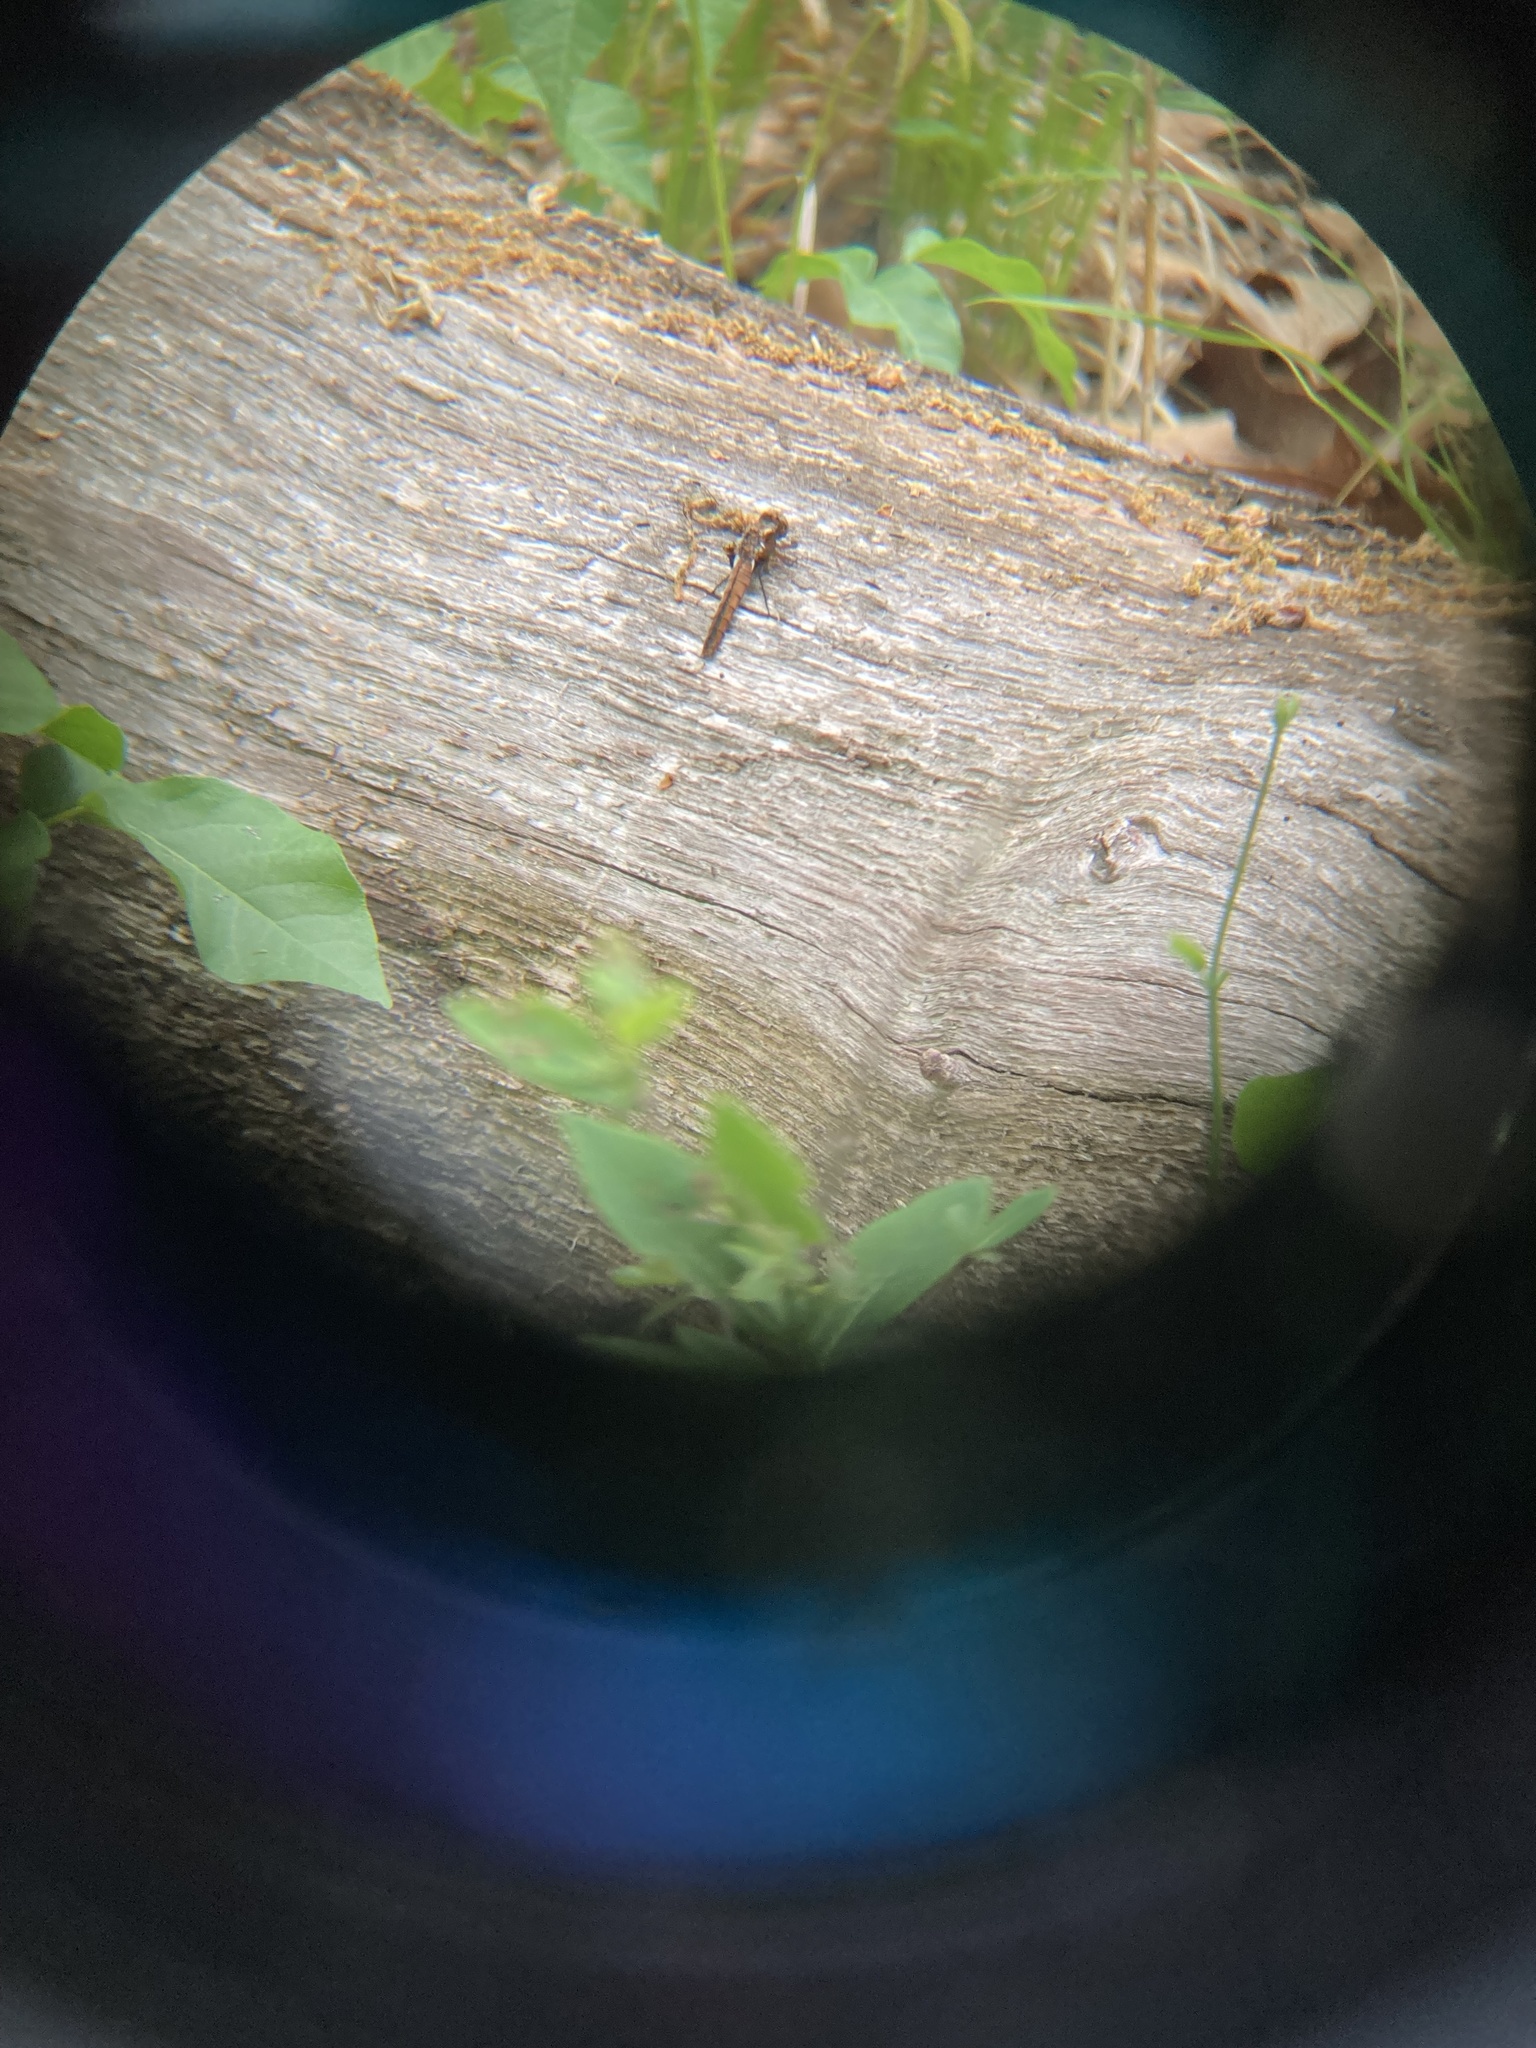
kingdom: Animalia
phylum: Arthropoda
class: Insecta
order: Odonata
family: Libellulidae
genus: Ladona
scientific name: Ladona julia
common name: Chalk-fronted corporal
